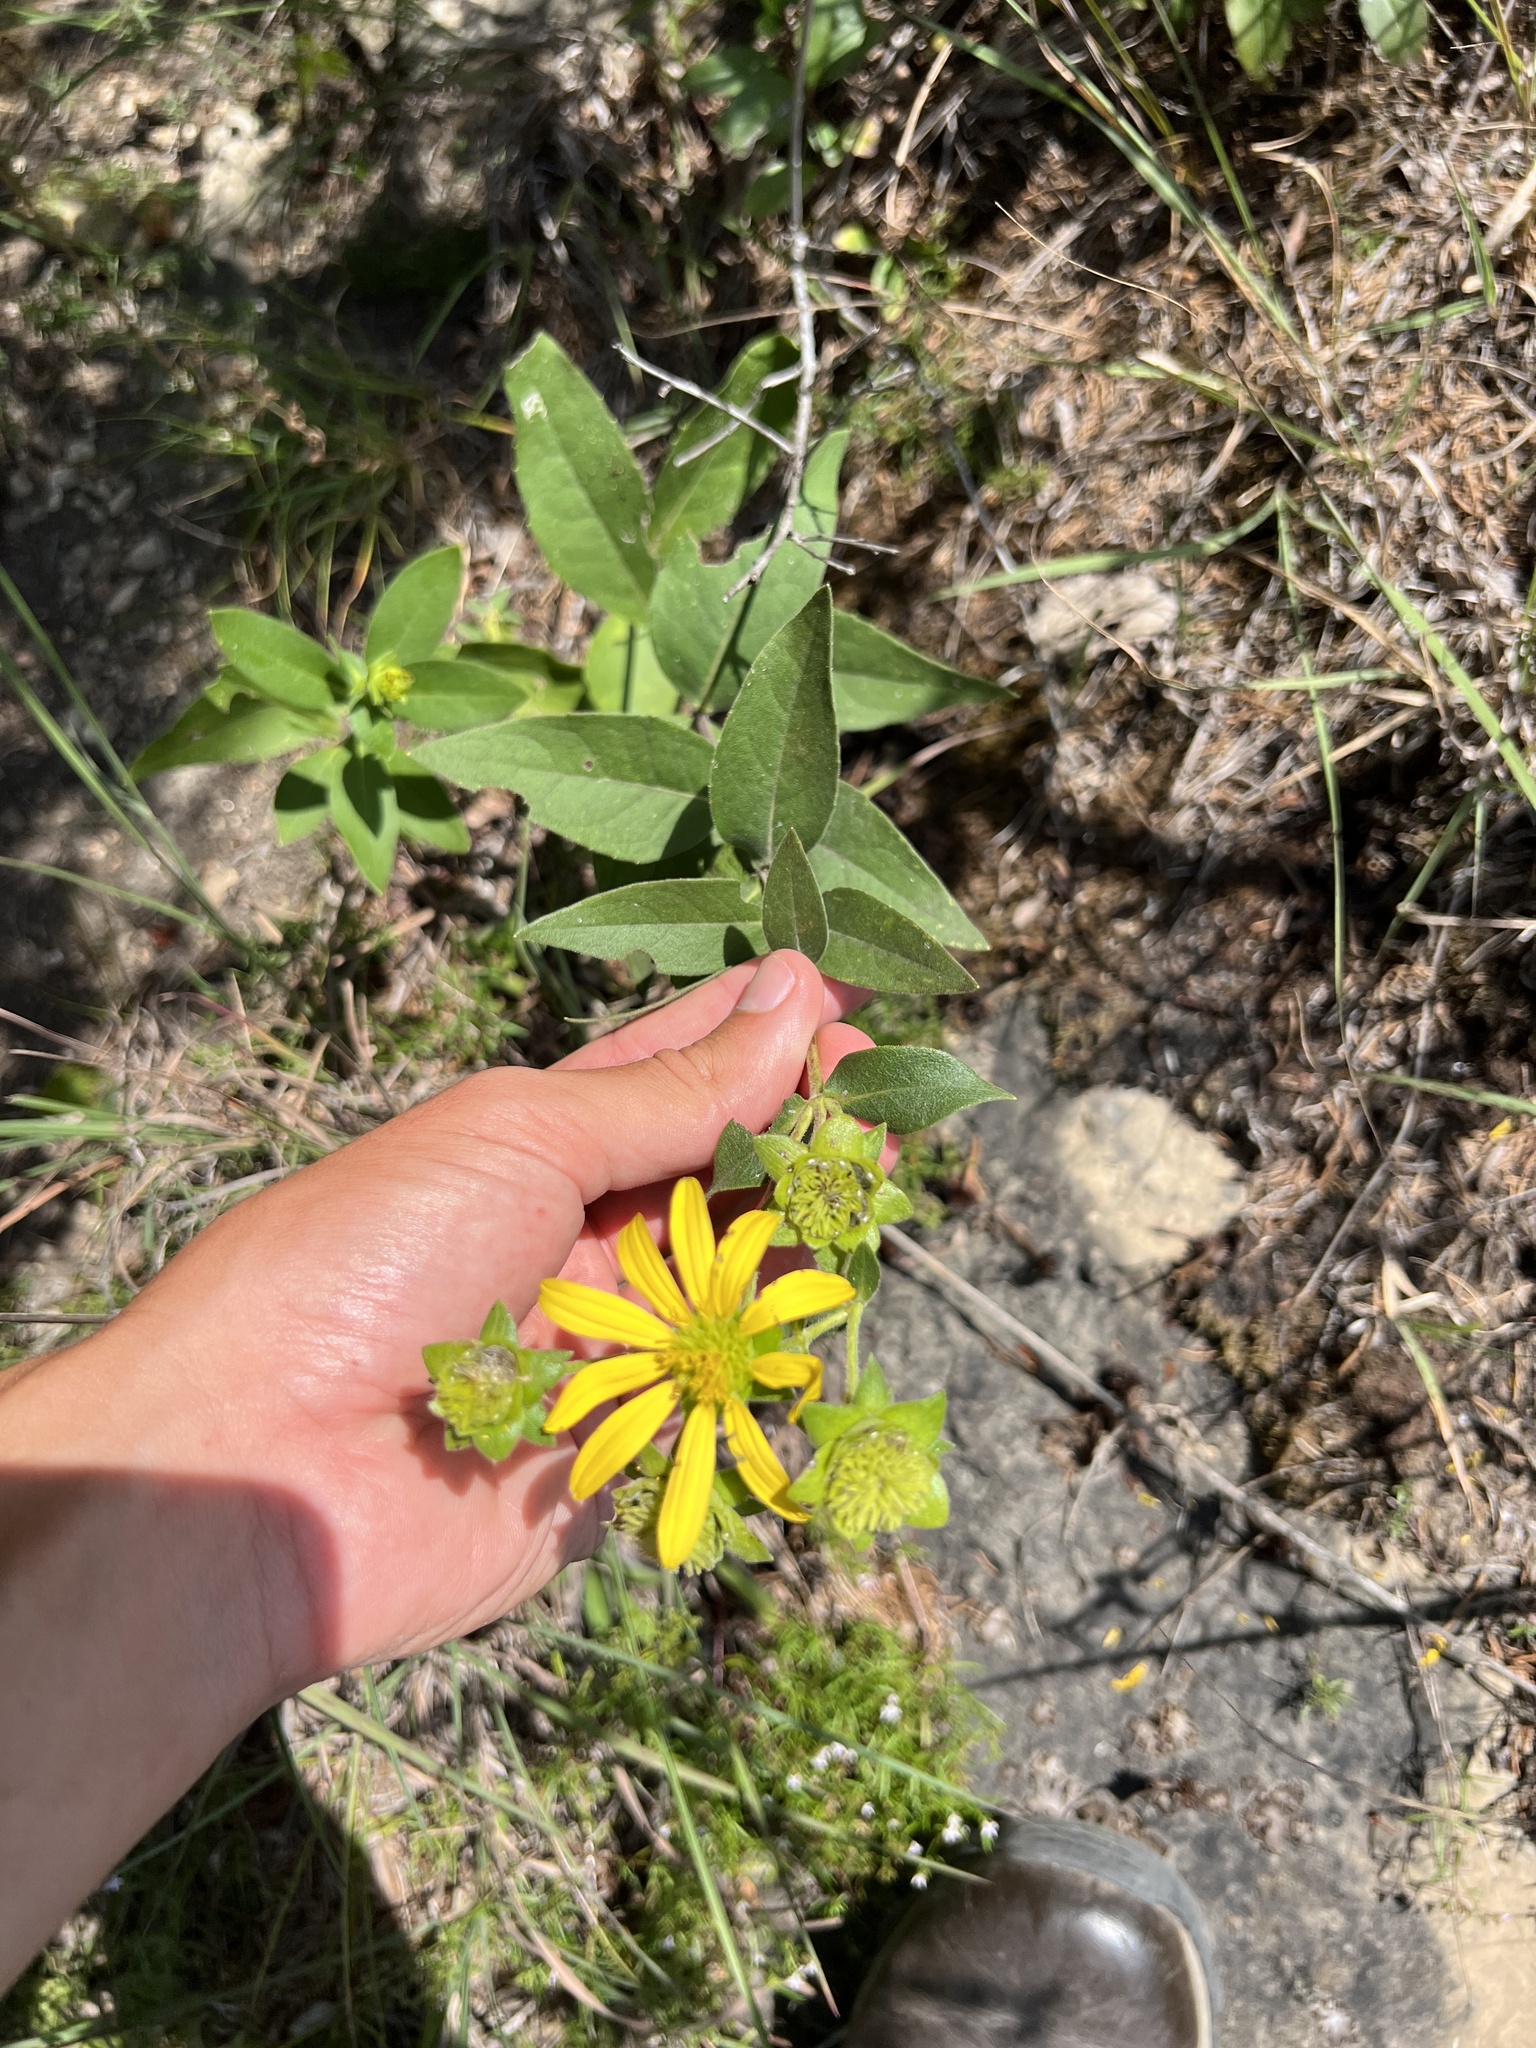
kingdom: Plantae
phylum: Tracheophyta
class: Magnoliopsida
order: Asterales
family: Asteraceae
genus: Silphium
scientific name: Silphium integrifolium
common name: Whole-leaf rosinweed
